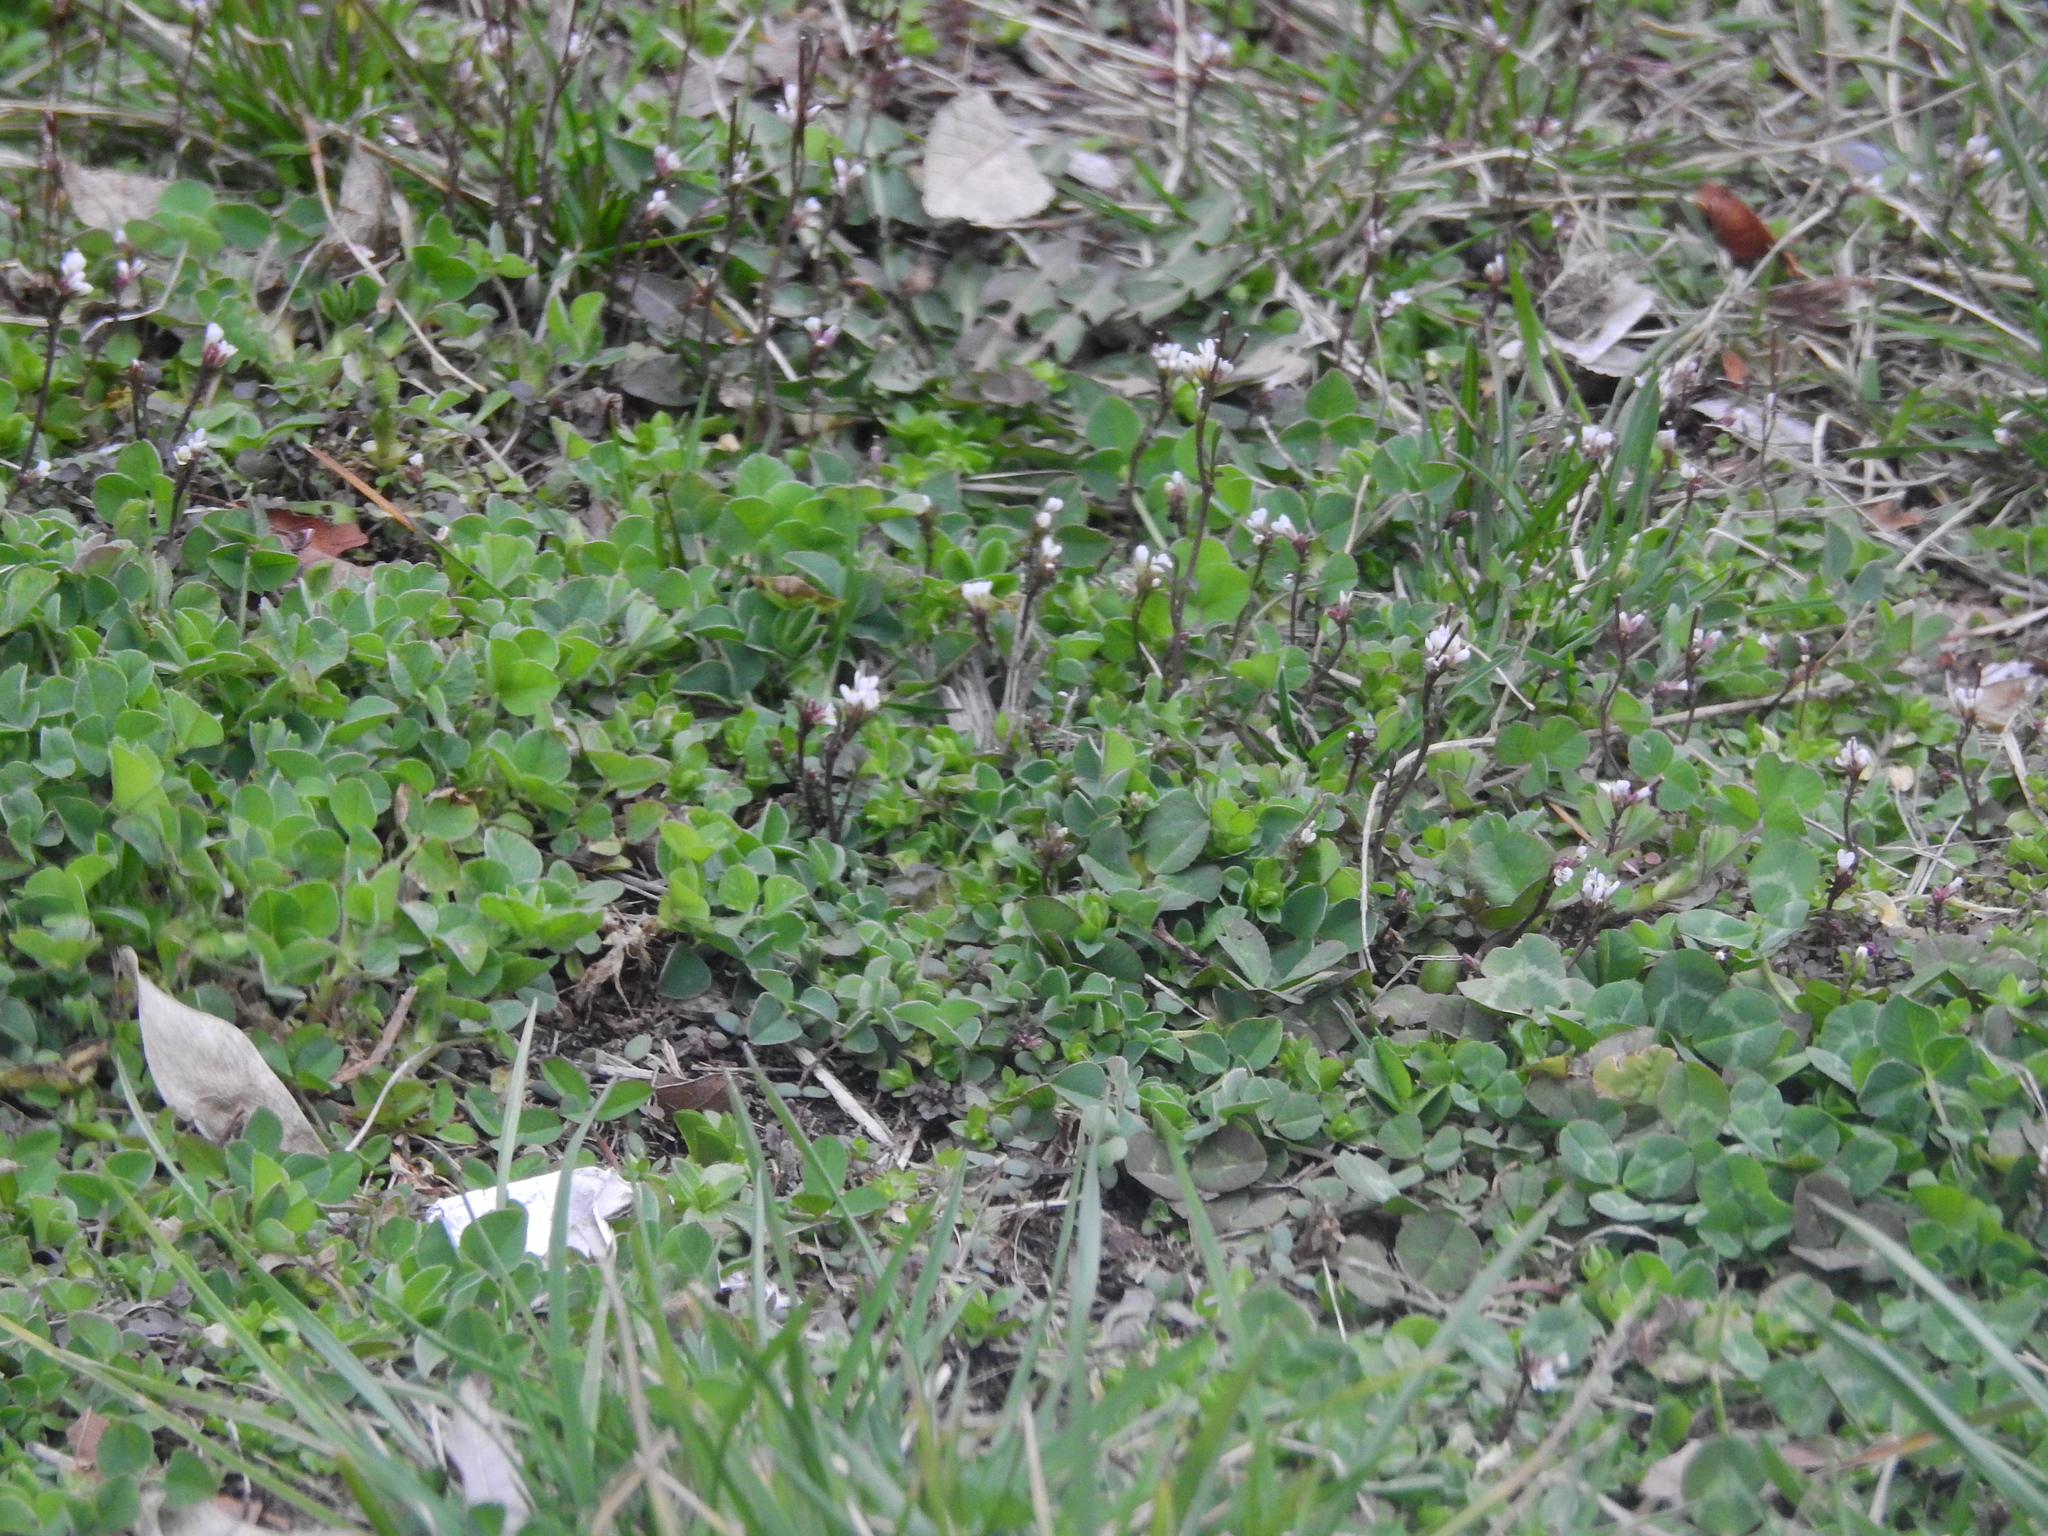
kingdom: Plantae
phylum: Tracheophyta
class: Magnoliopsida
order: Brassicales
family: Brassicaceae
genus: Cardamine
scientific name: Cardamine hirsuta
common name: Hairy bittercress
